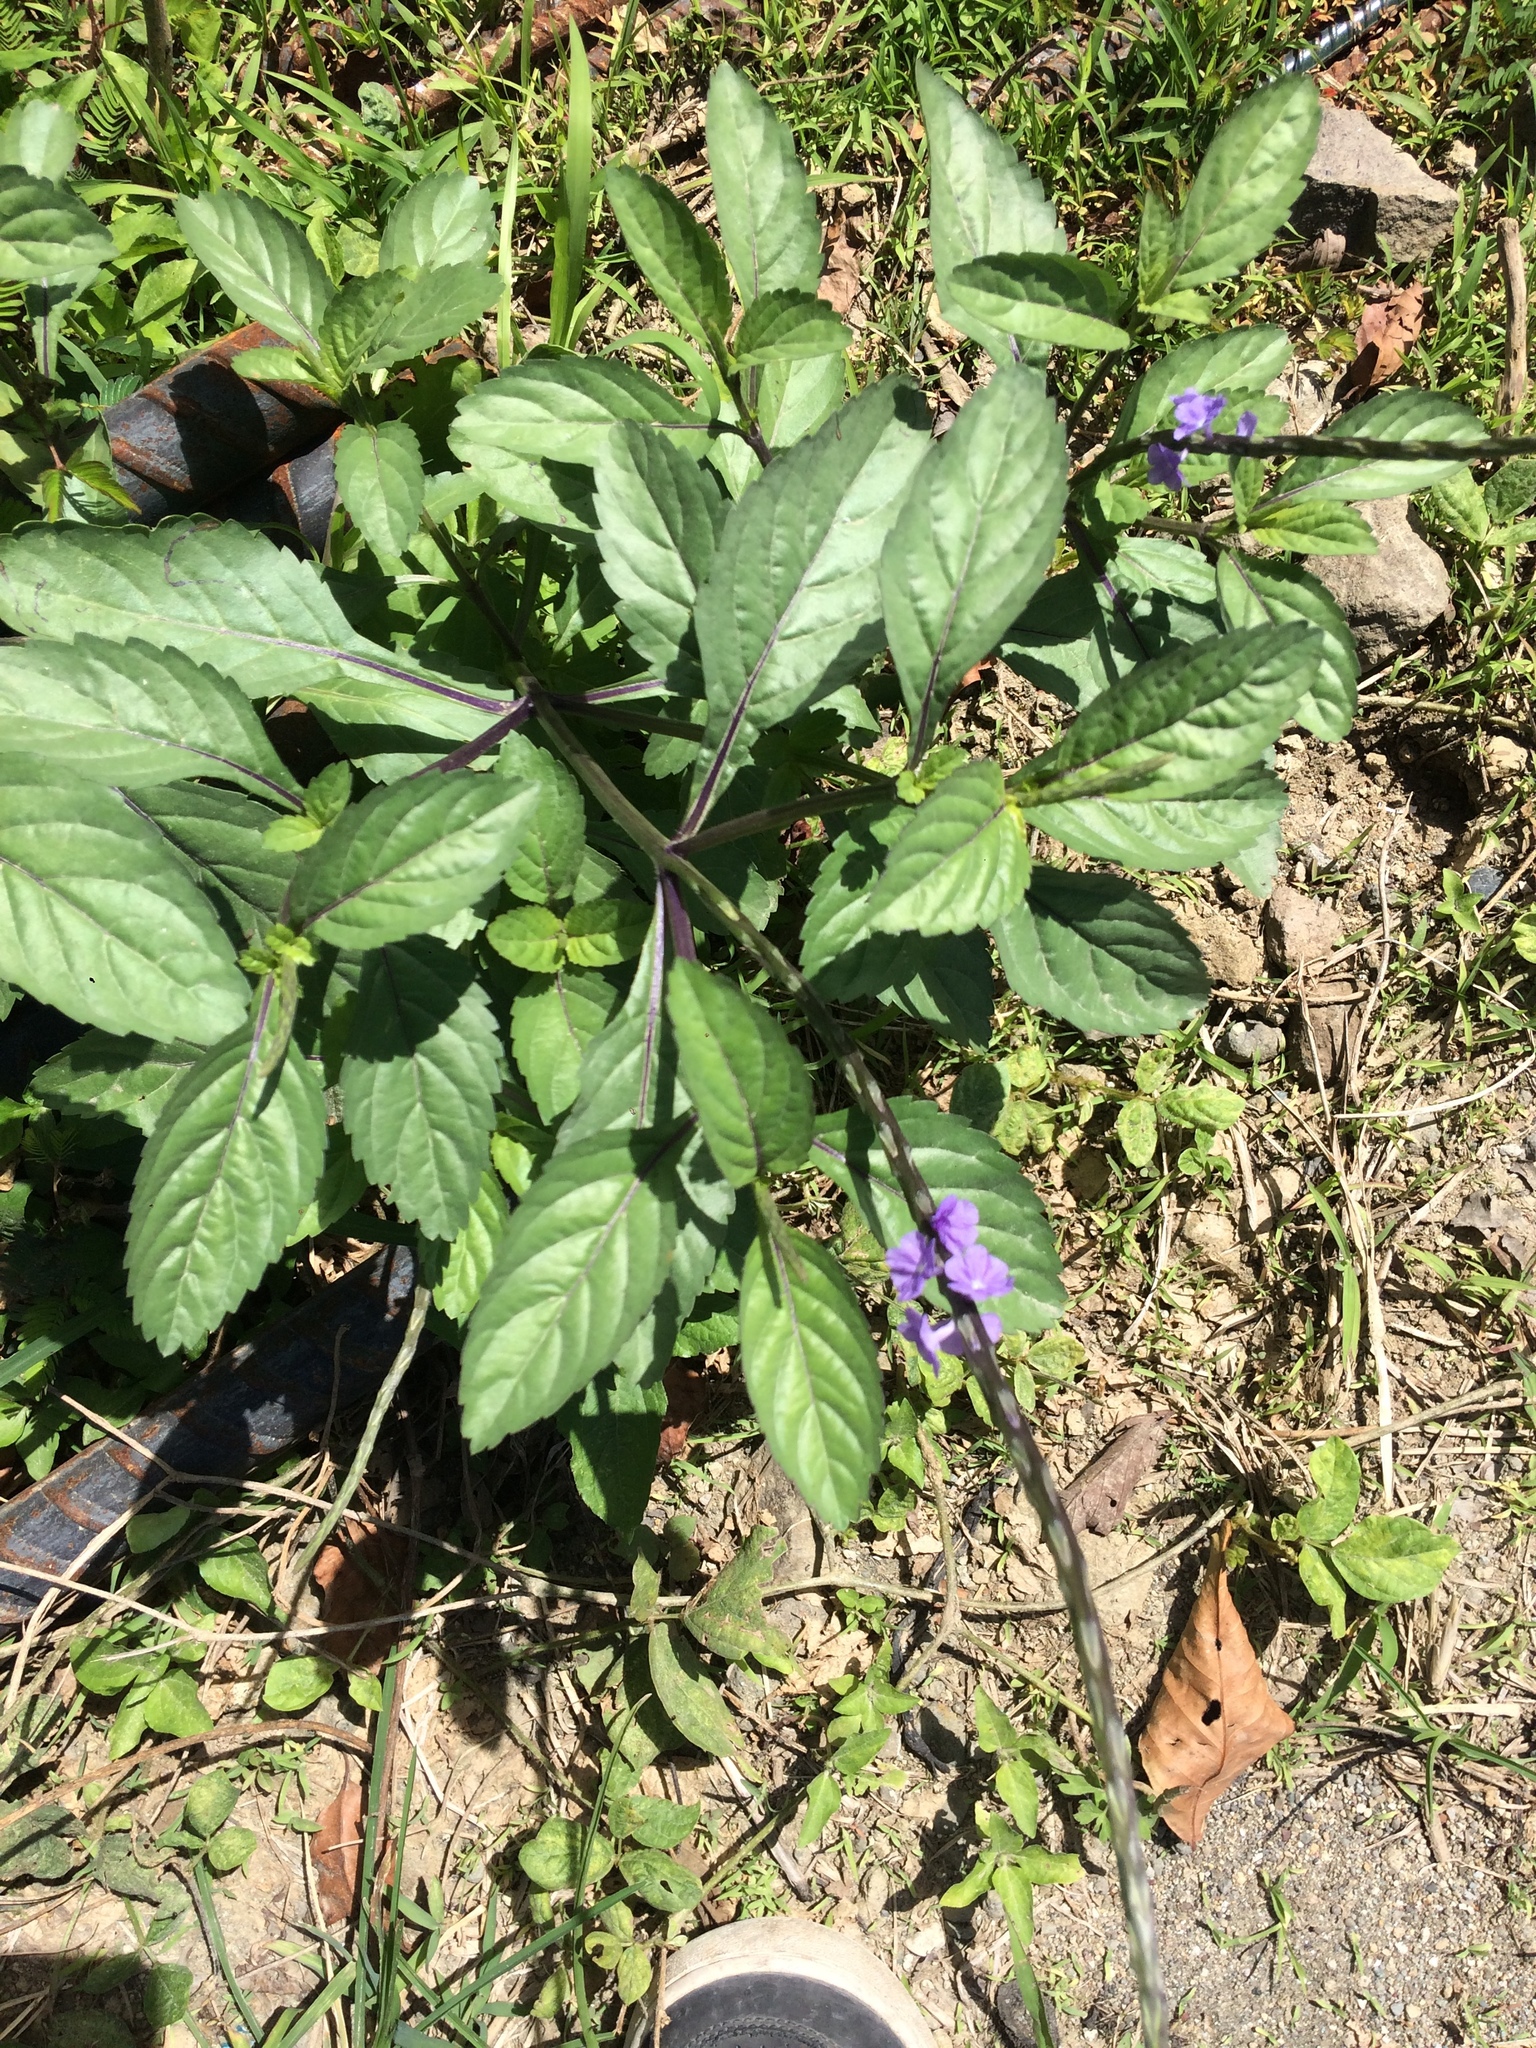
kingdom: Plantae
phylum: Tracheophyta
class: Magnoliopsida
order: Lamiales
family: Verbenaceae
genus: Stachytarpheta
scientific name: Stachytarpheta jamaicensis
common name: Light-blue snakeweed
